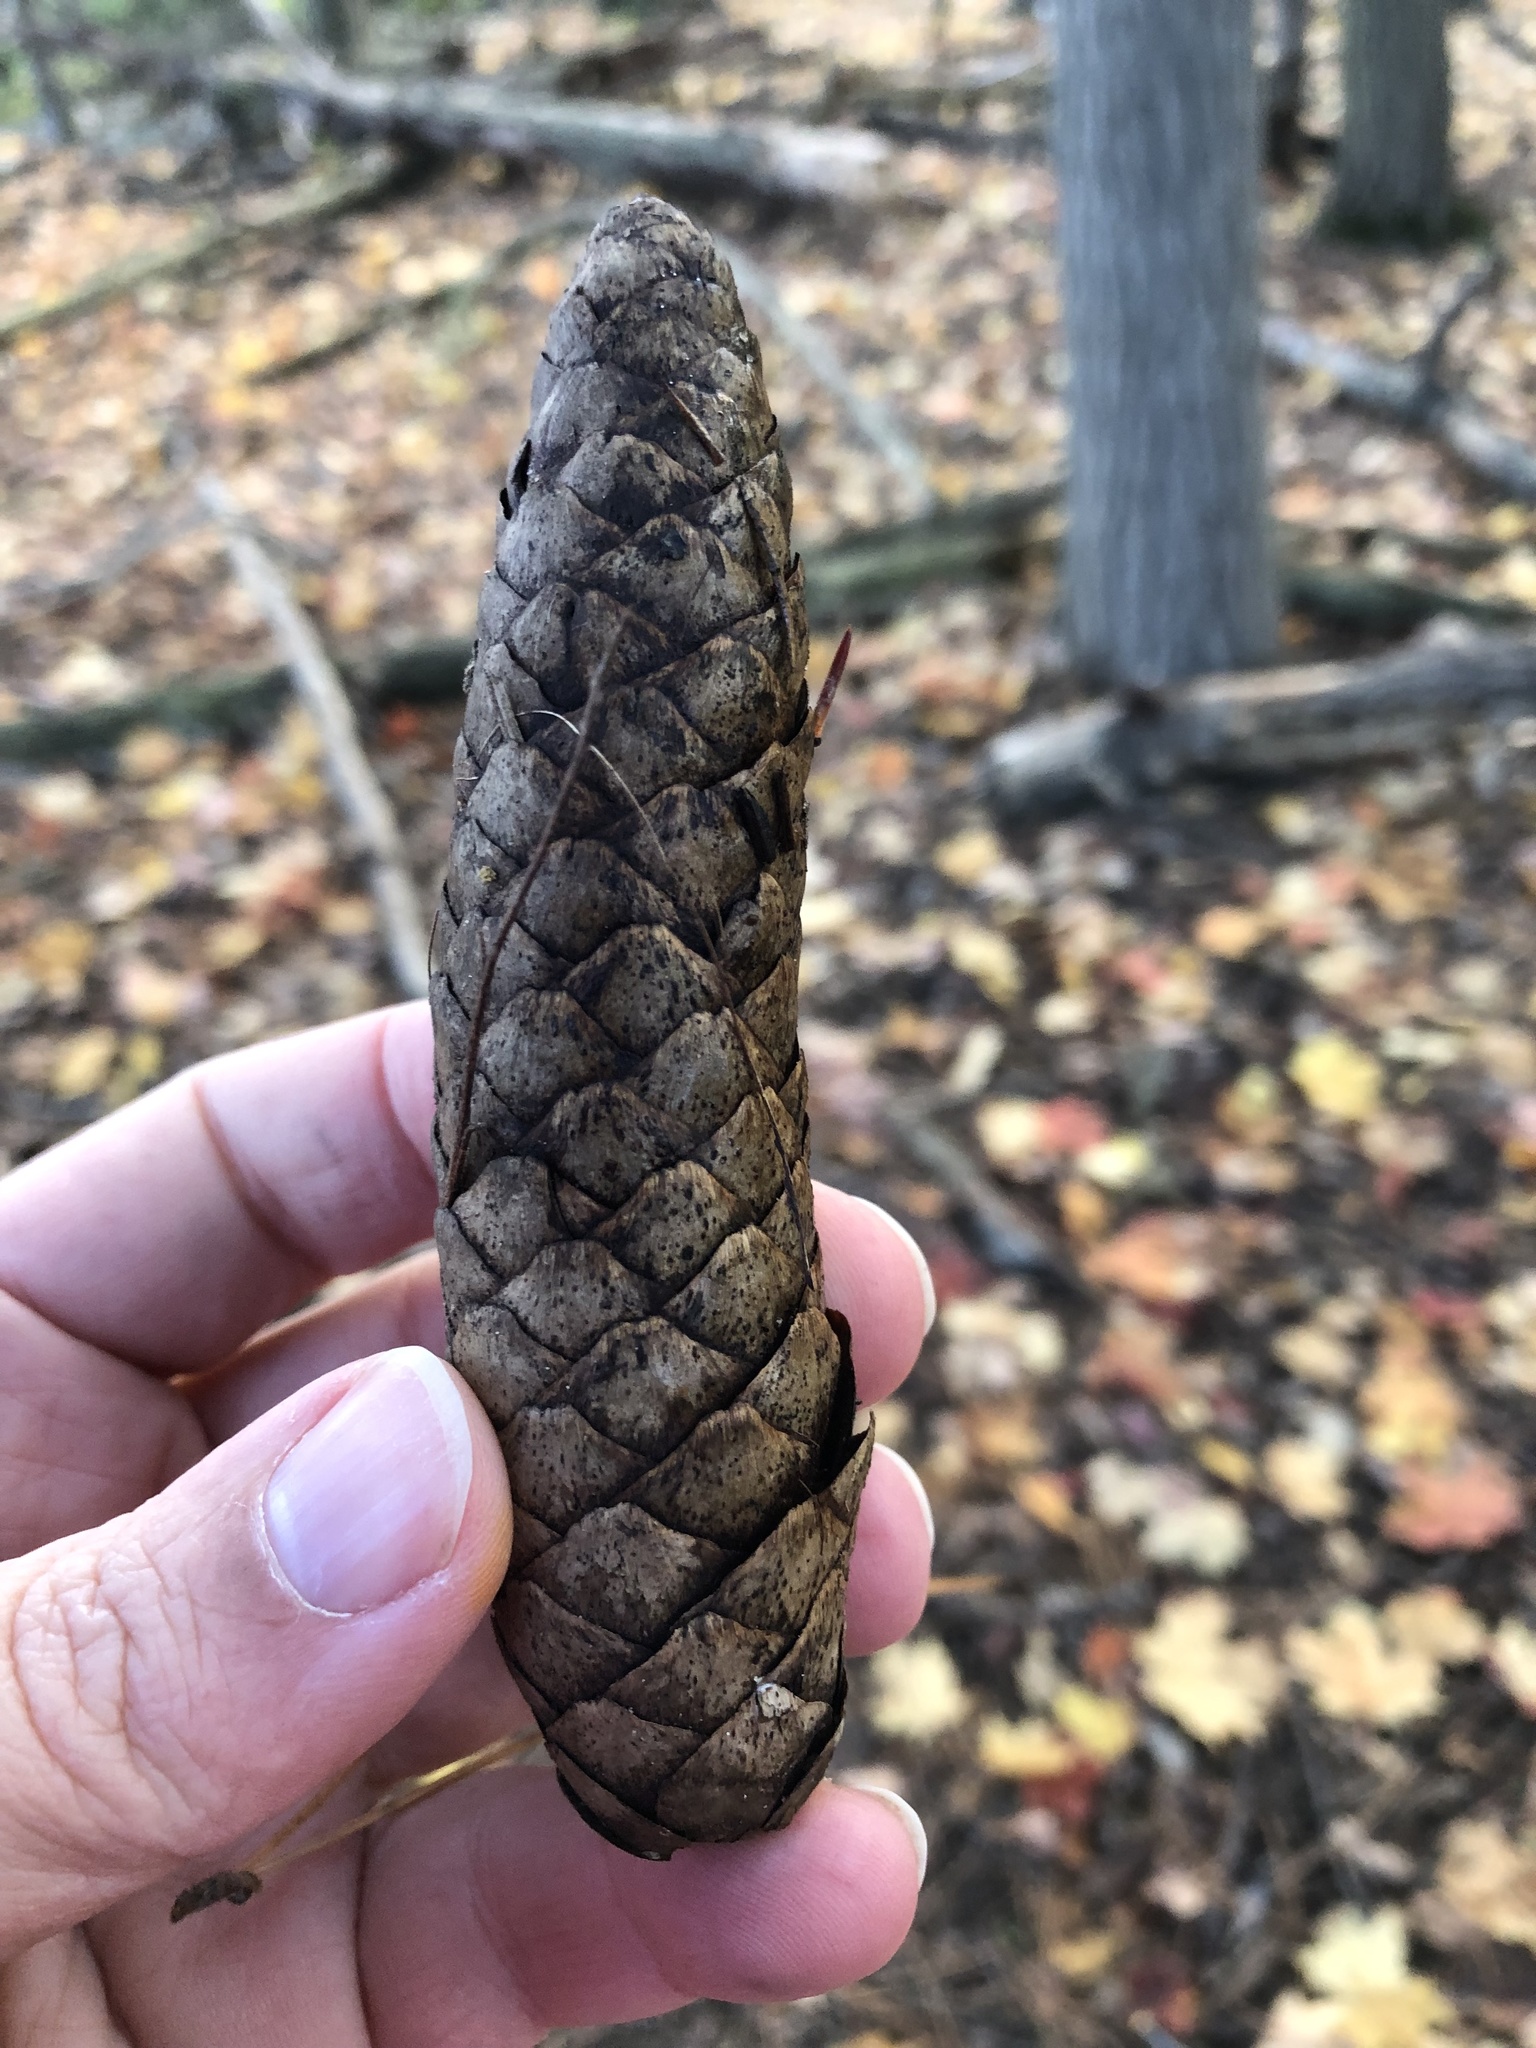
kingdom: Plantae
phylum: Tracheophyta
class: Pinopsida
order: Pinales
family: Pinaceae
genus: Picea
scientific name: Picea abies
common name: Norway spruce
